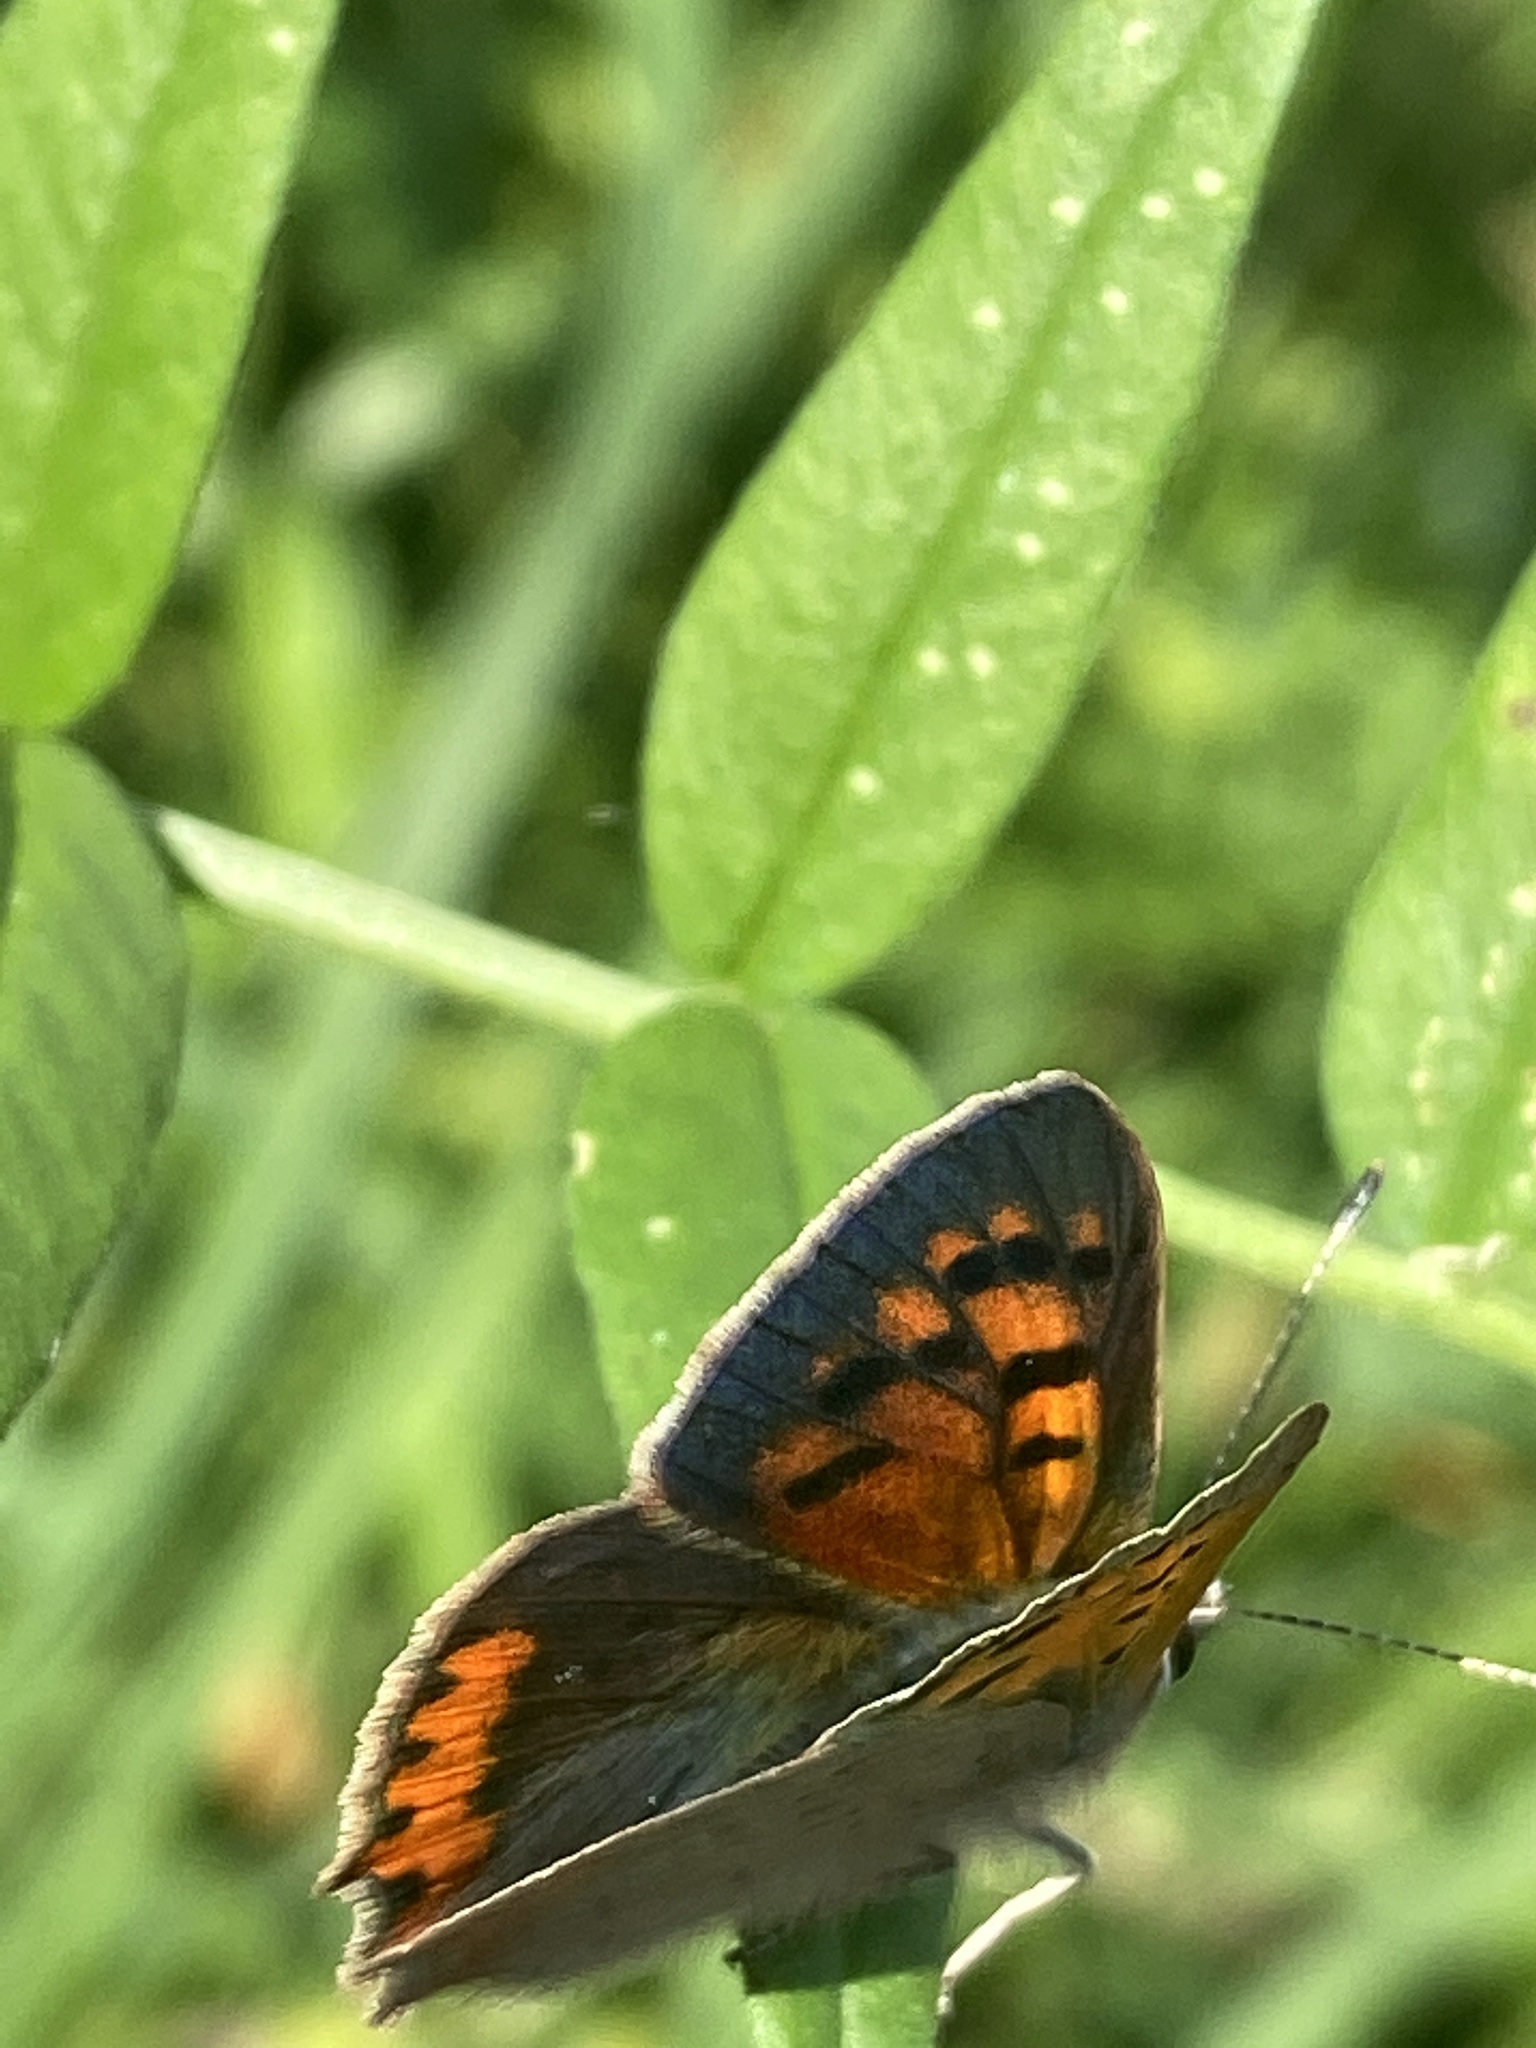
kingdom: Animalia
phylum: Arthropoda
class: Insecta
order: Lepidoptera
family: Lycaenidae
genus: Lycaena
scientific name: Lycaena phlaeas
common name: Small copper
